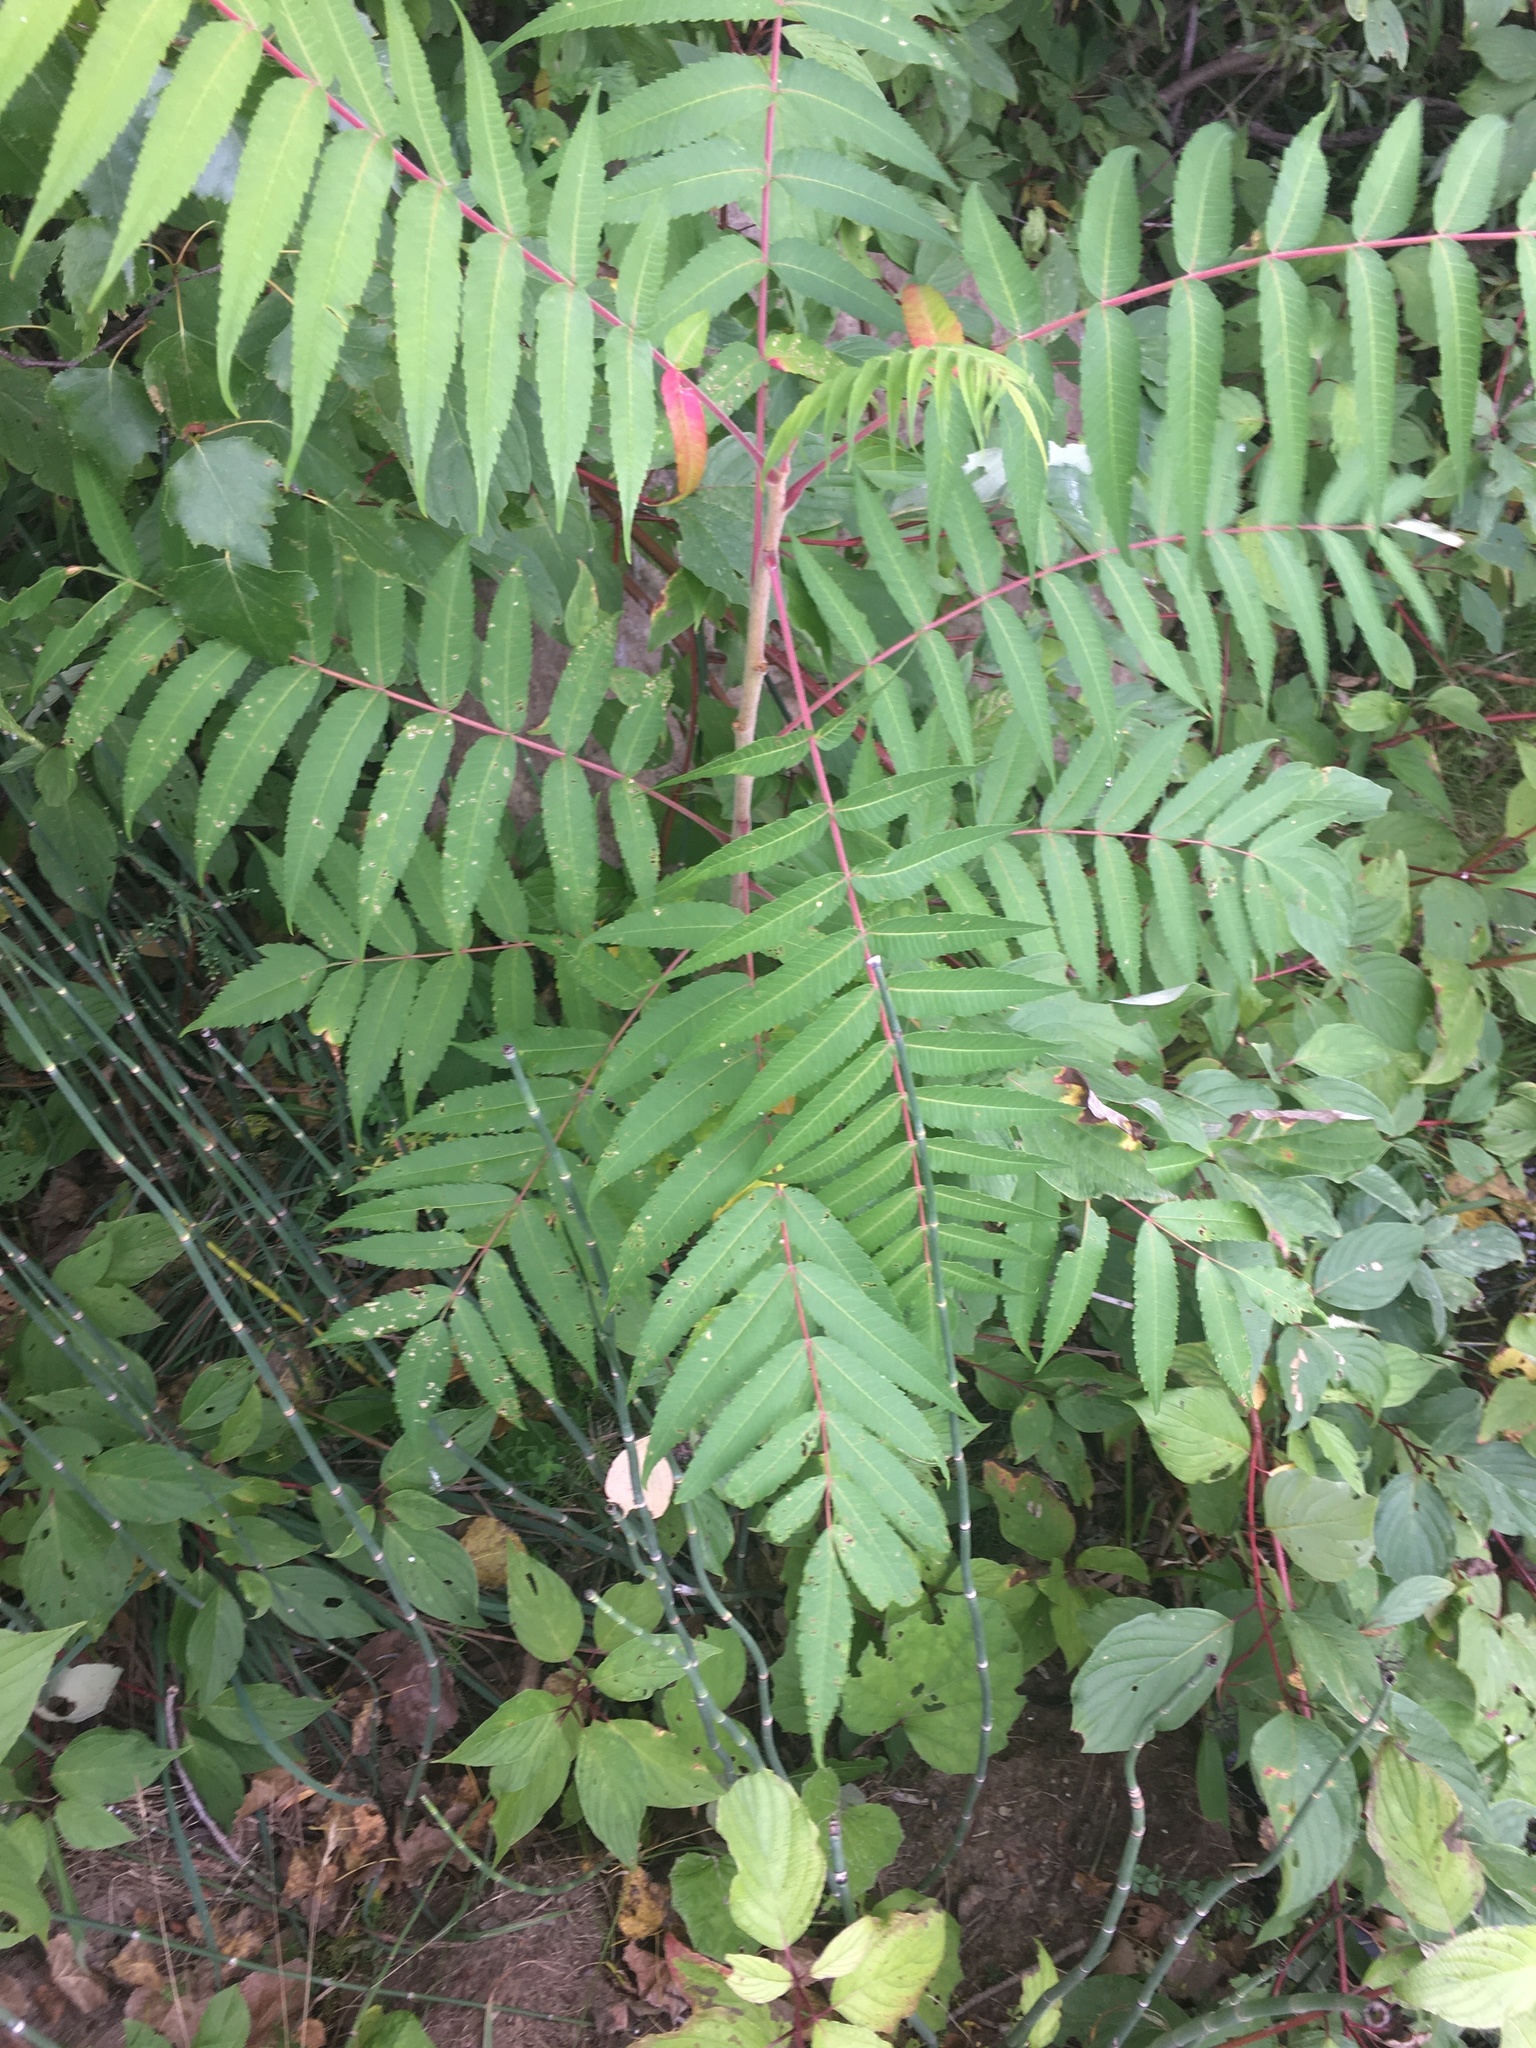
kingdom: Plantae
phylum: Tracheophyta
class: Magnoliopsida
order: Sapindales
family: Anacardiaceae
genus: Rhus
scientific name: Rhus typhina
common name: Staghorn sumac
